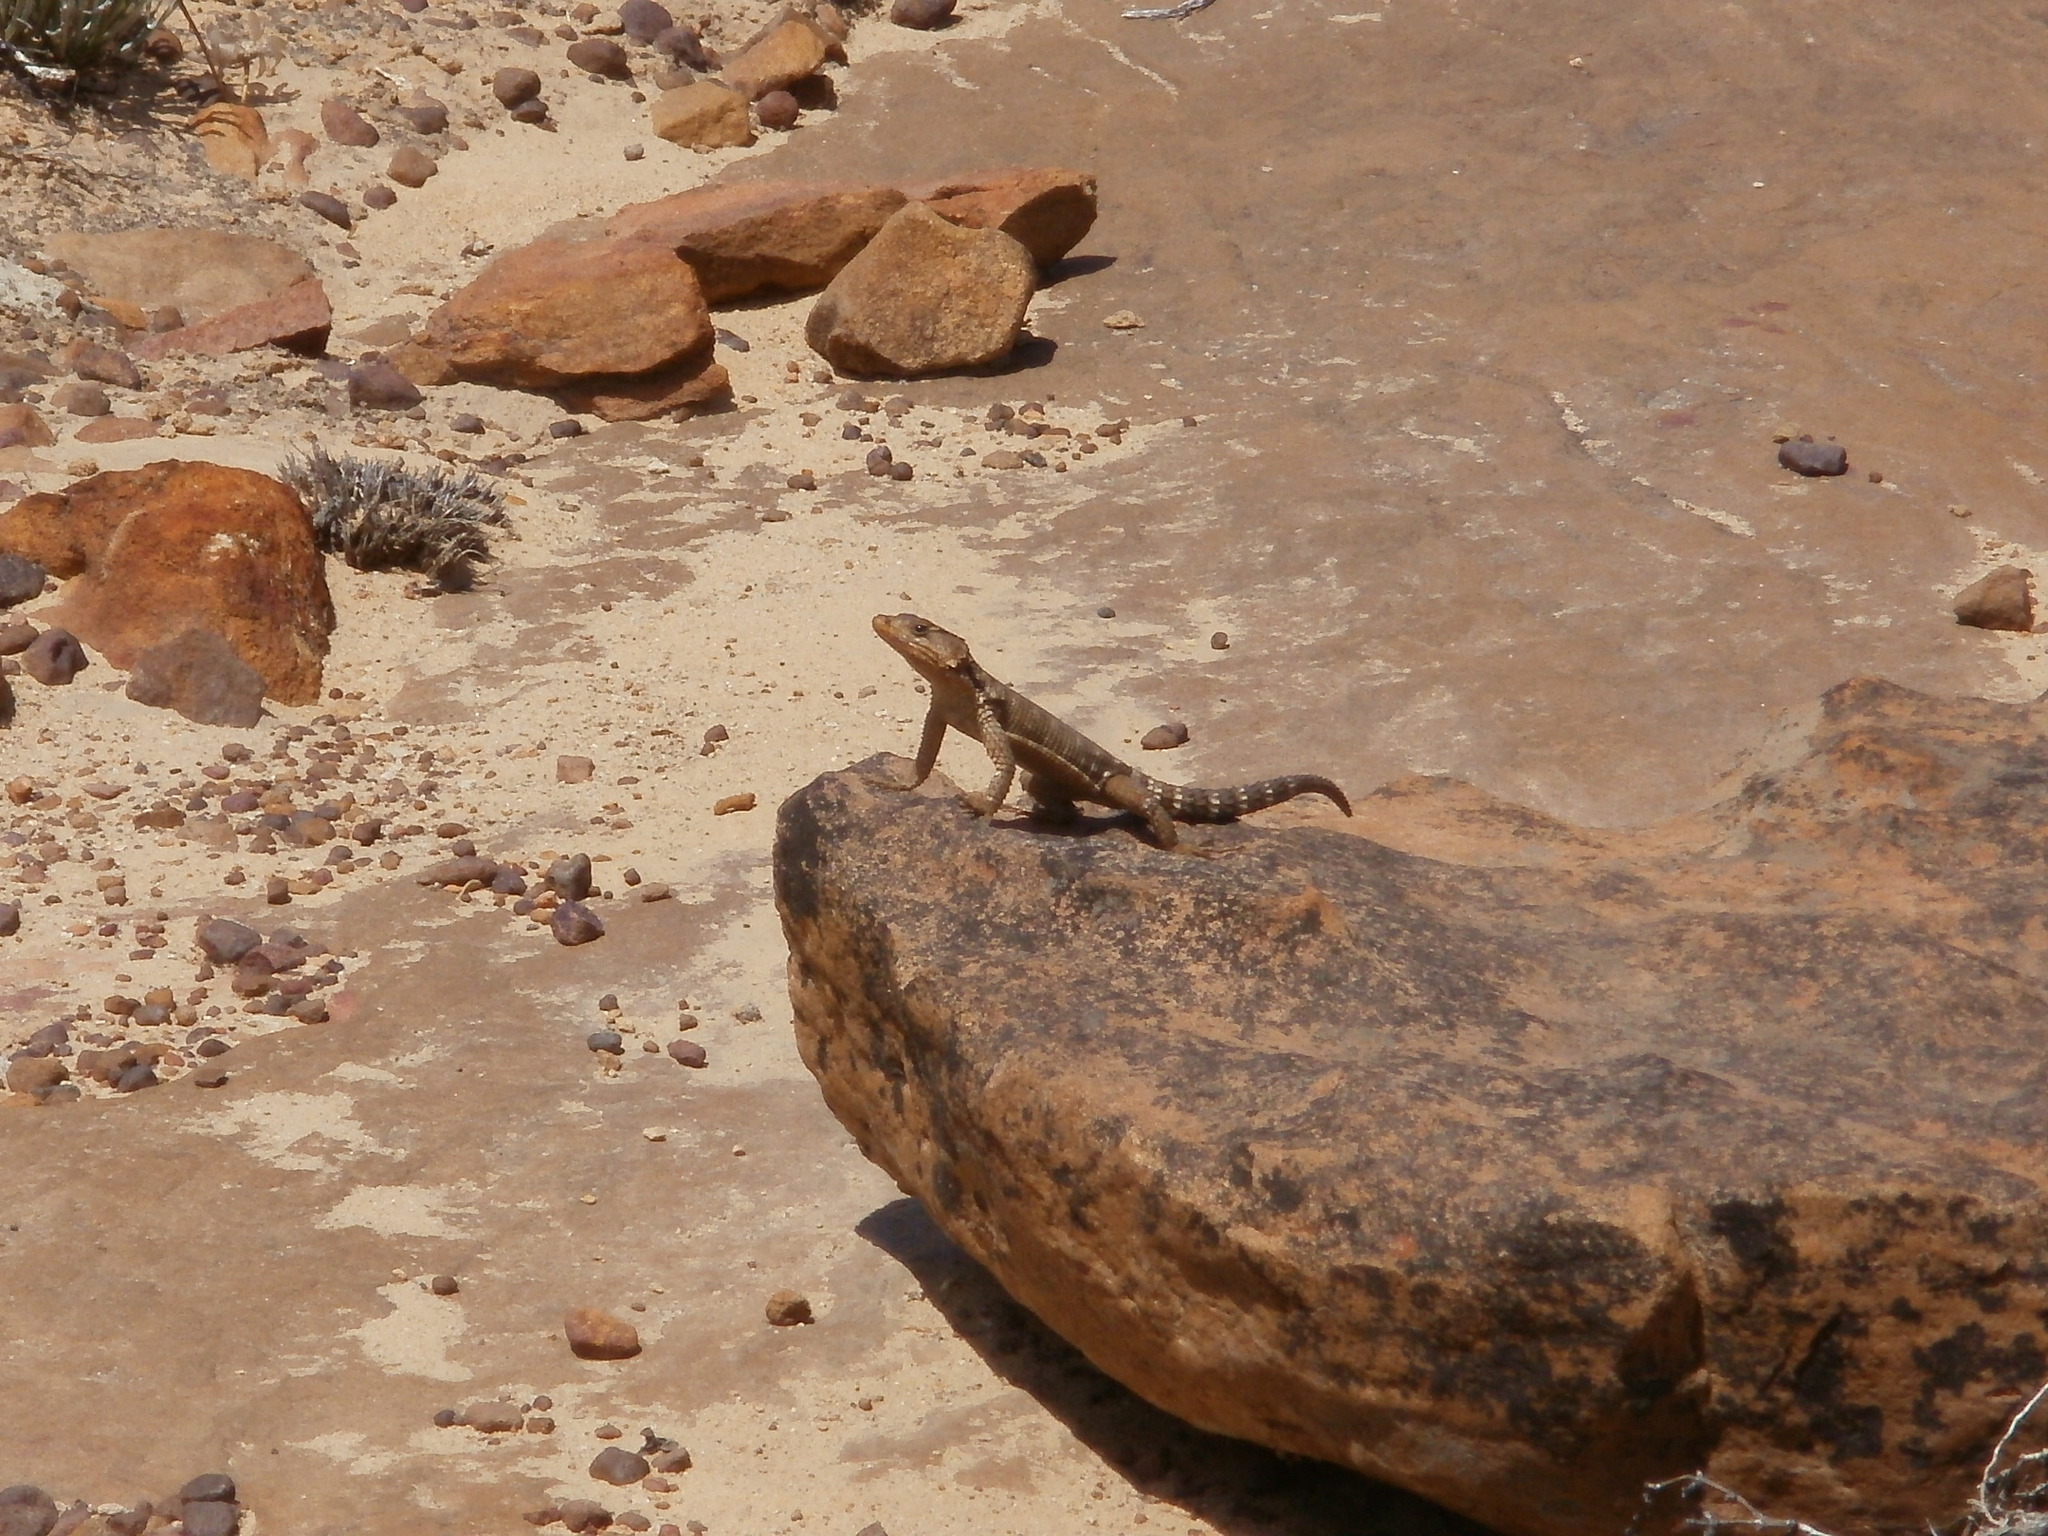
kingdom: Animalia
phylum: Chordata
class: Squamata
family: Cordylidae
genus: Karusasaurus
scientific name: Karusasaurus polyzonus
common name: Karoo girdled lizard
